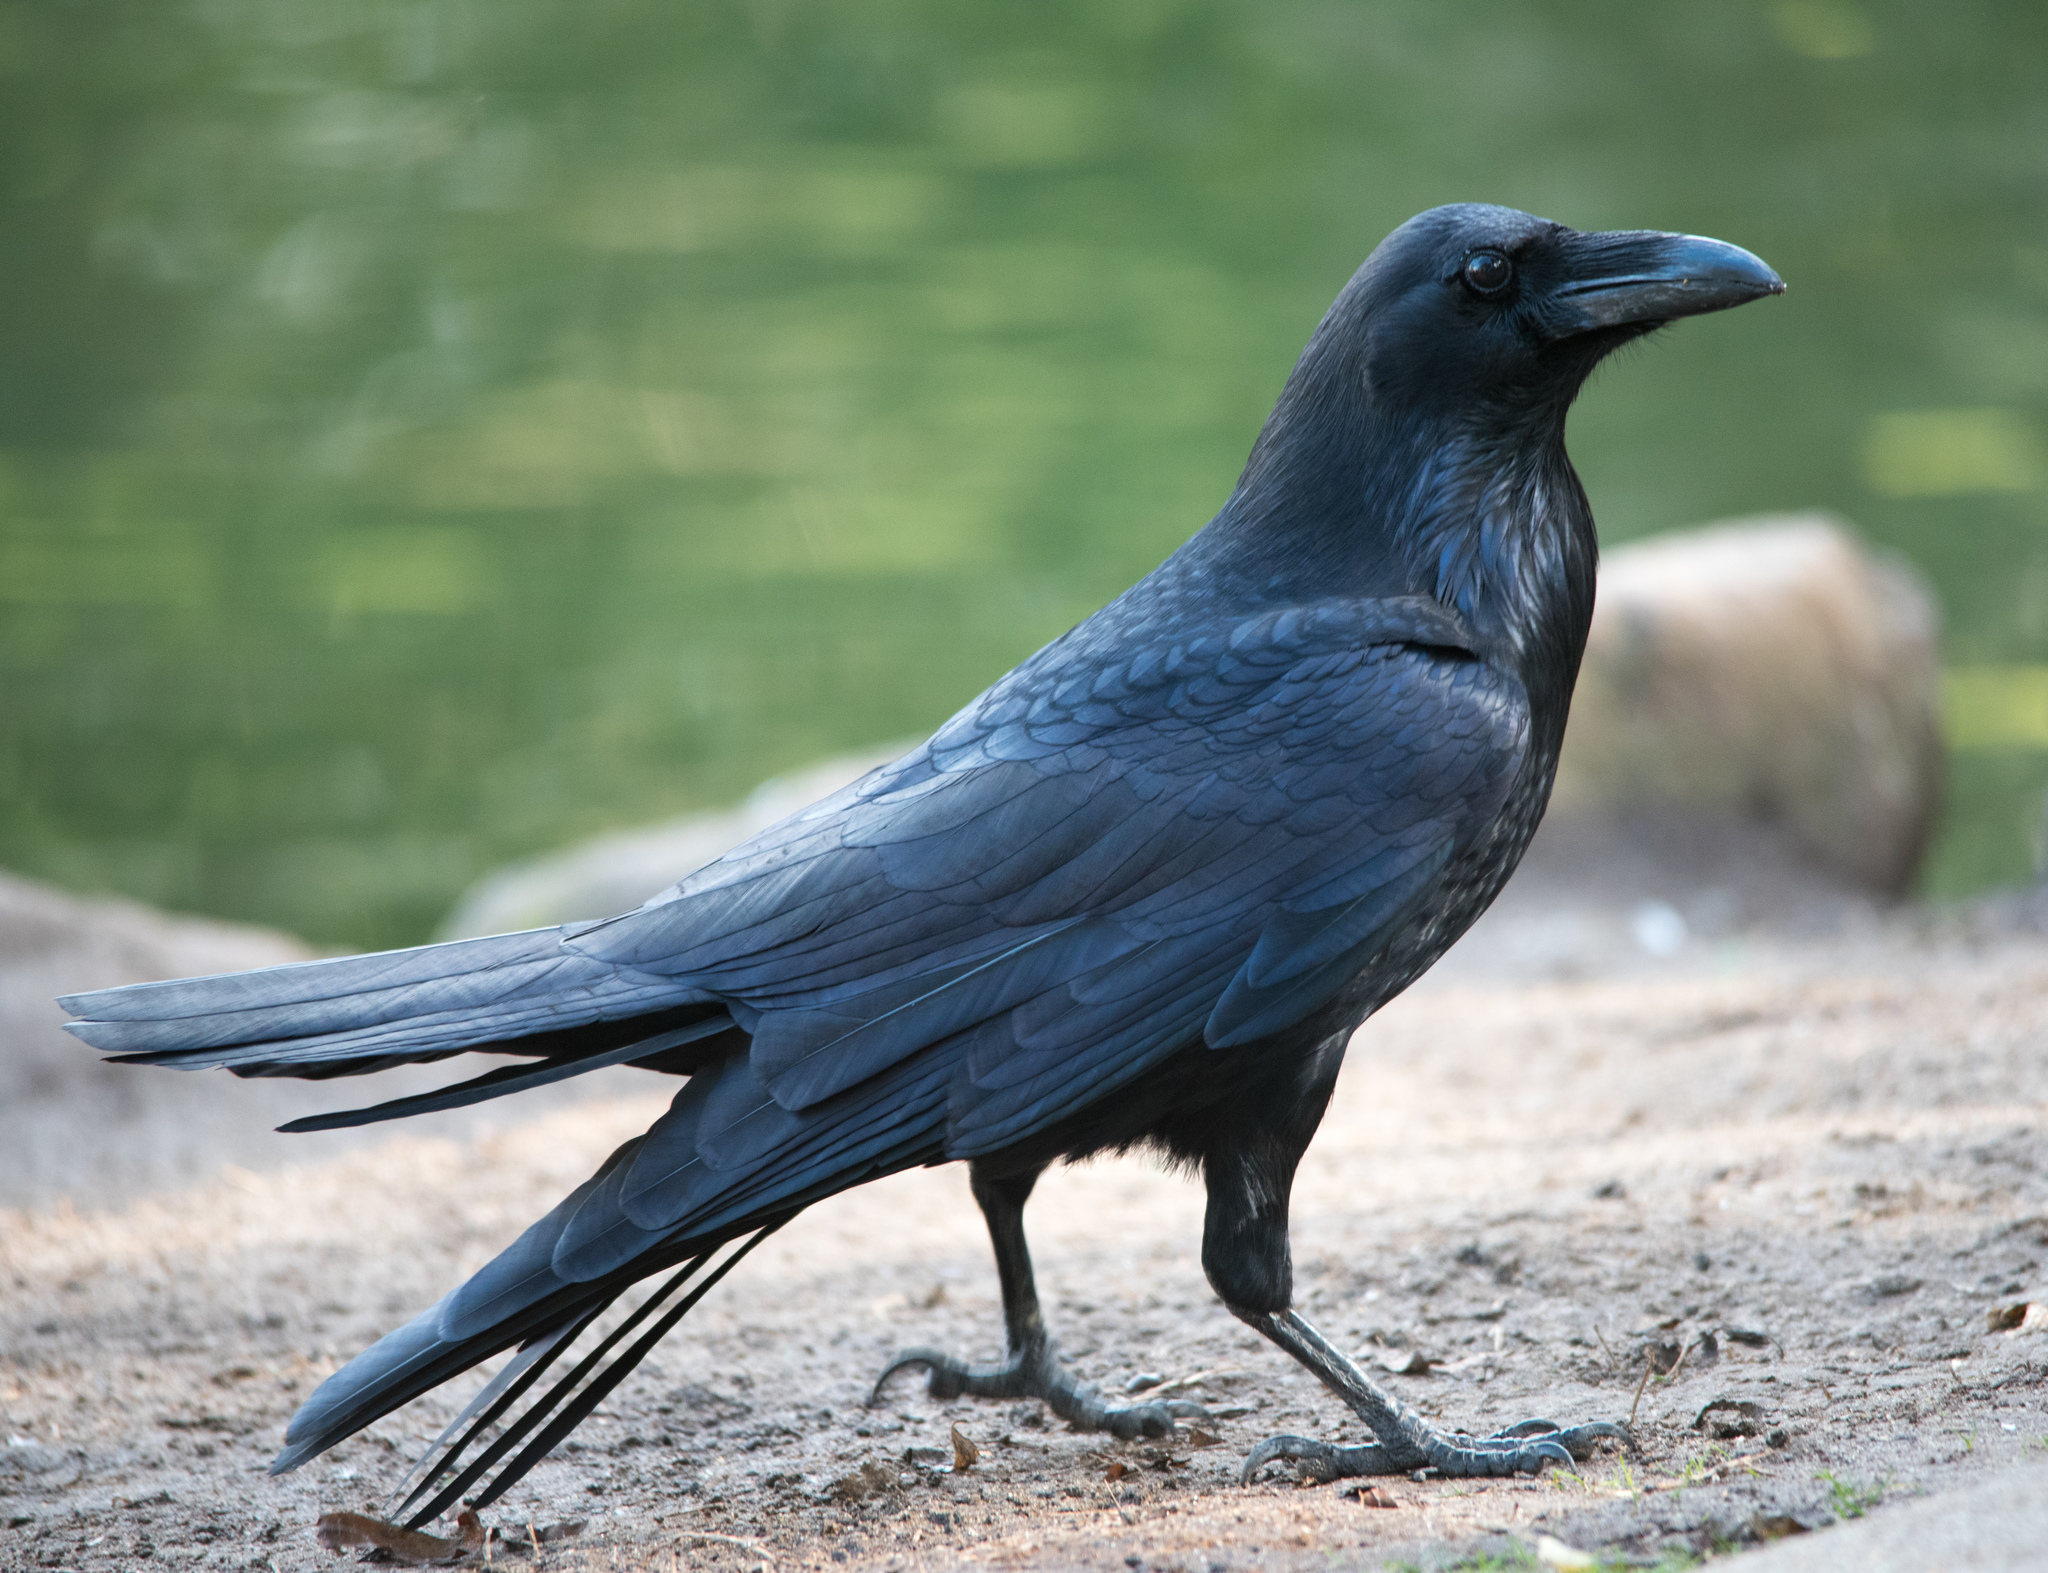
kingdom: Animalia
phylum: Chordata
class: Aves
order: Passeriformes
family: Corvidae
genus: Corvus
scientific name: Corvus corax
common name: Common raven
